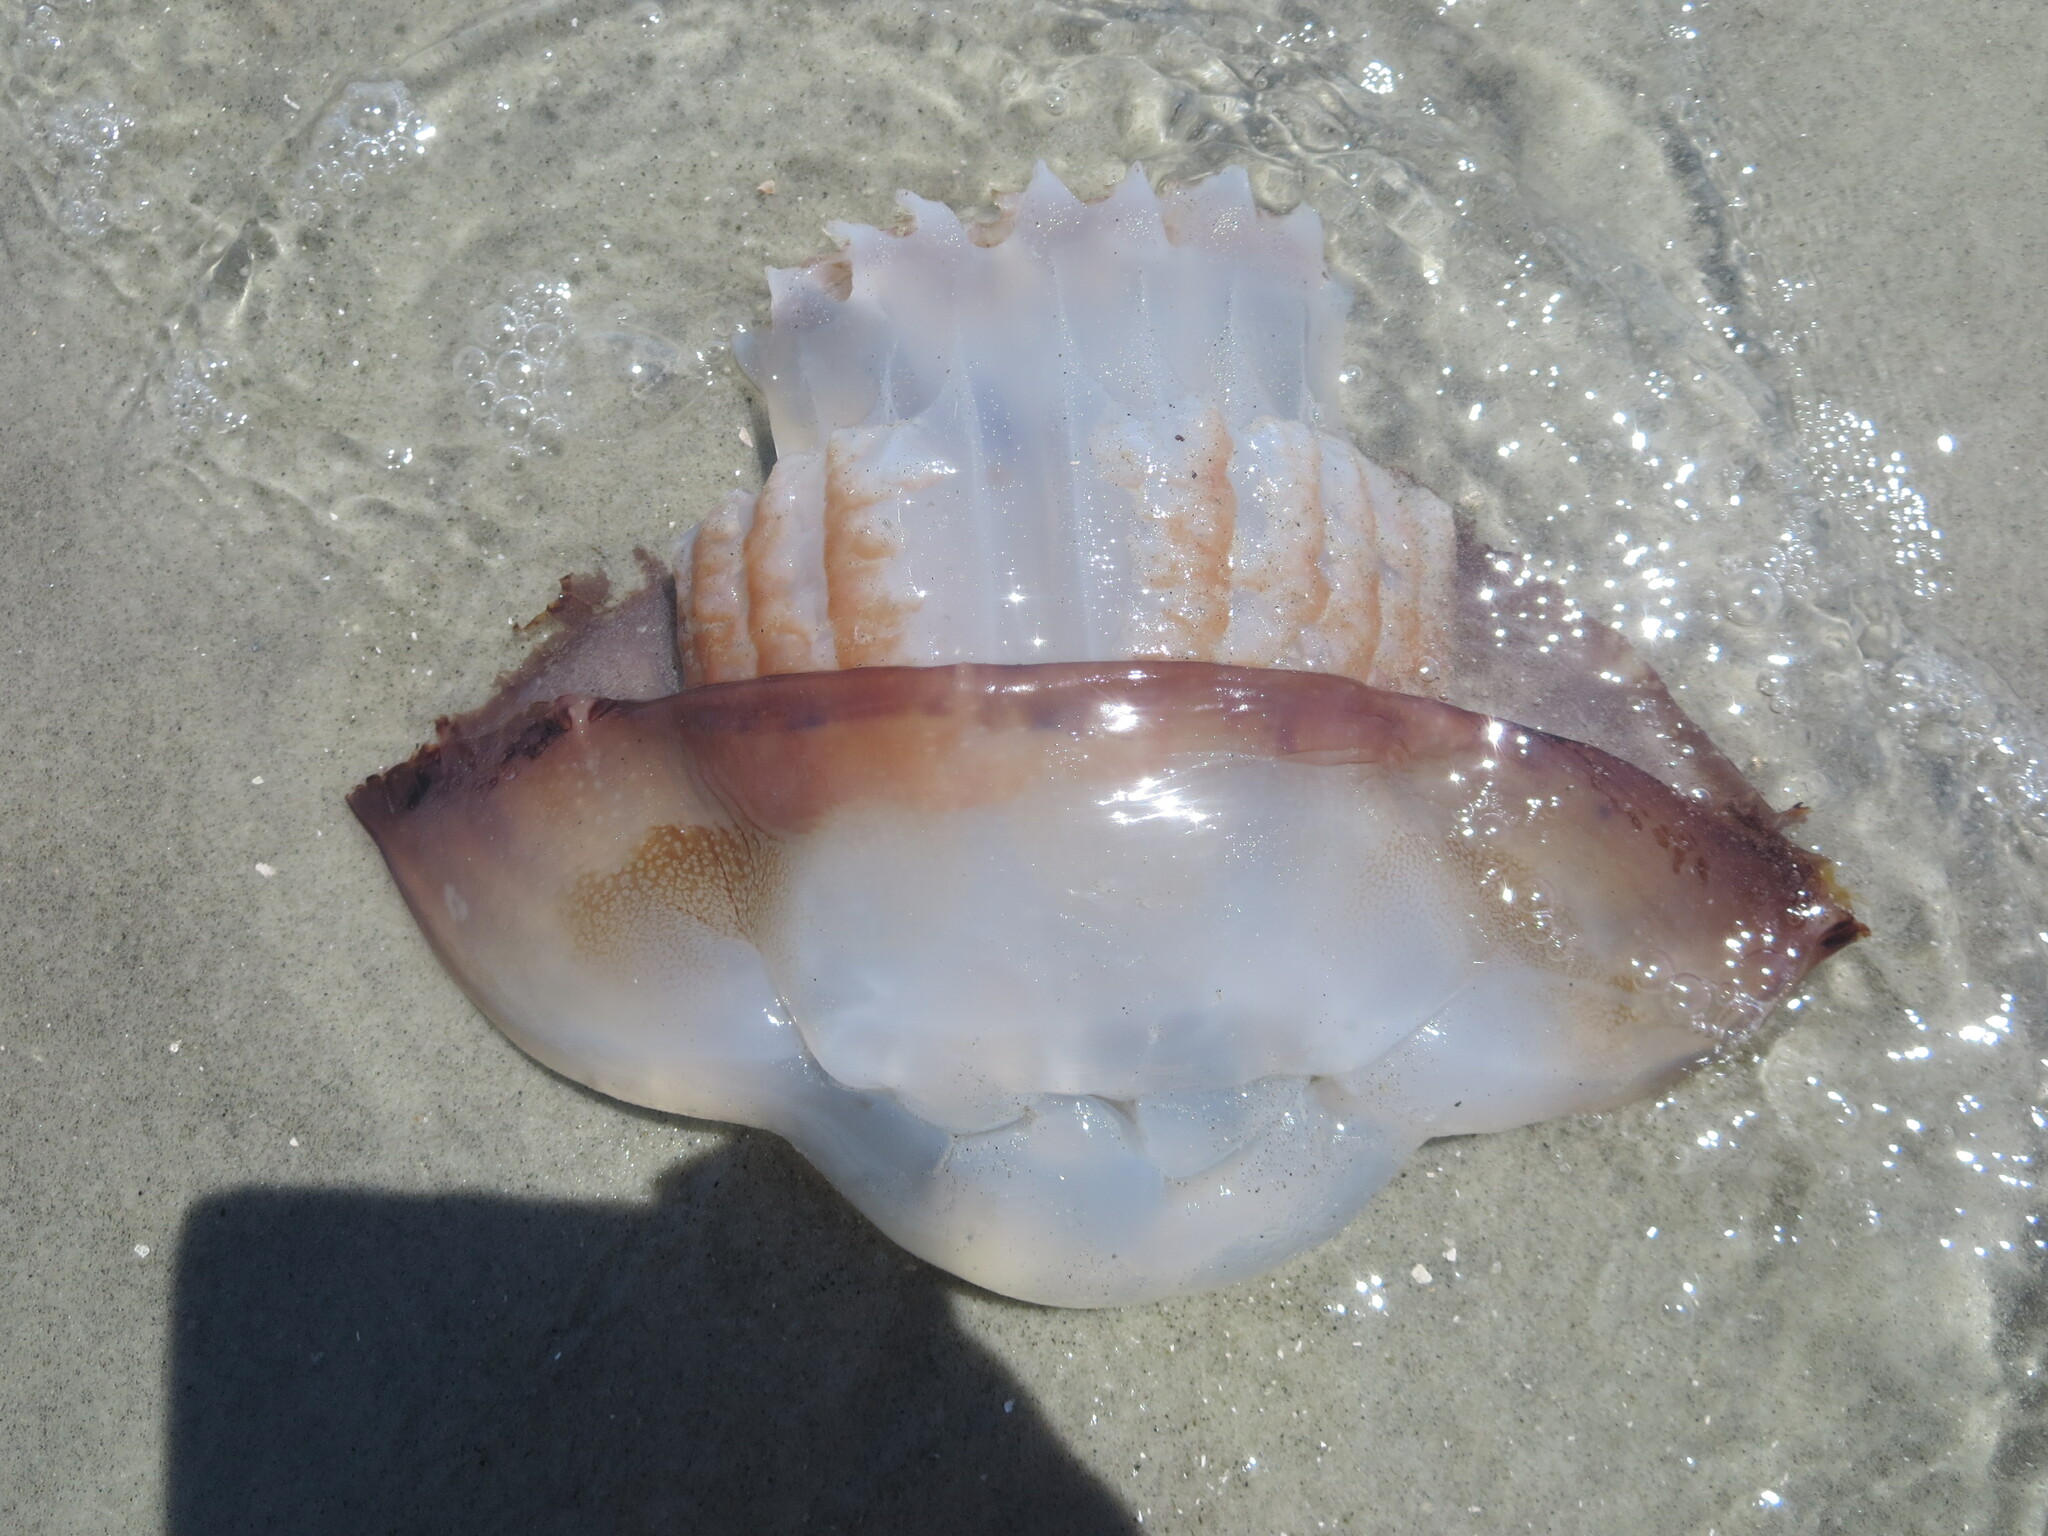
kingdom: Animalia
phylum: Cnidaria
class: Scyphozoa
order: Rhizostomeae
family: Stomolophidae
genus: Stomolophus
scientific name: Stomolophus meleagris
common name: Cabbagehead
